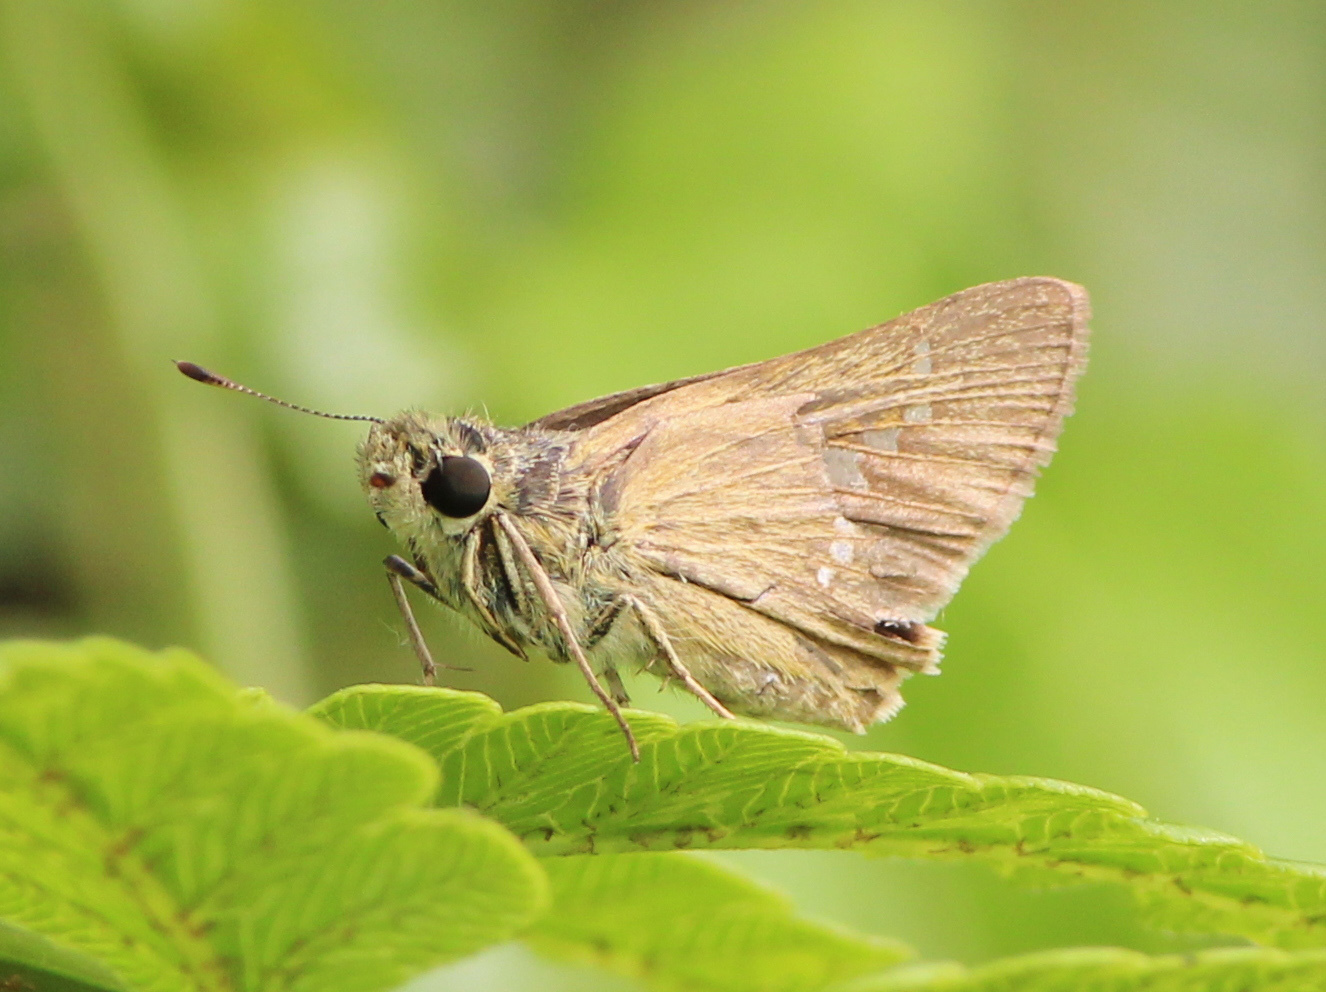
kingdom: Animalia
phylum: Arthropoda
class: Insecta
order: Lepidoptera
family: Hesperiidae
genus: Parnara
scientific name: Parnara naso
